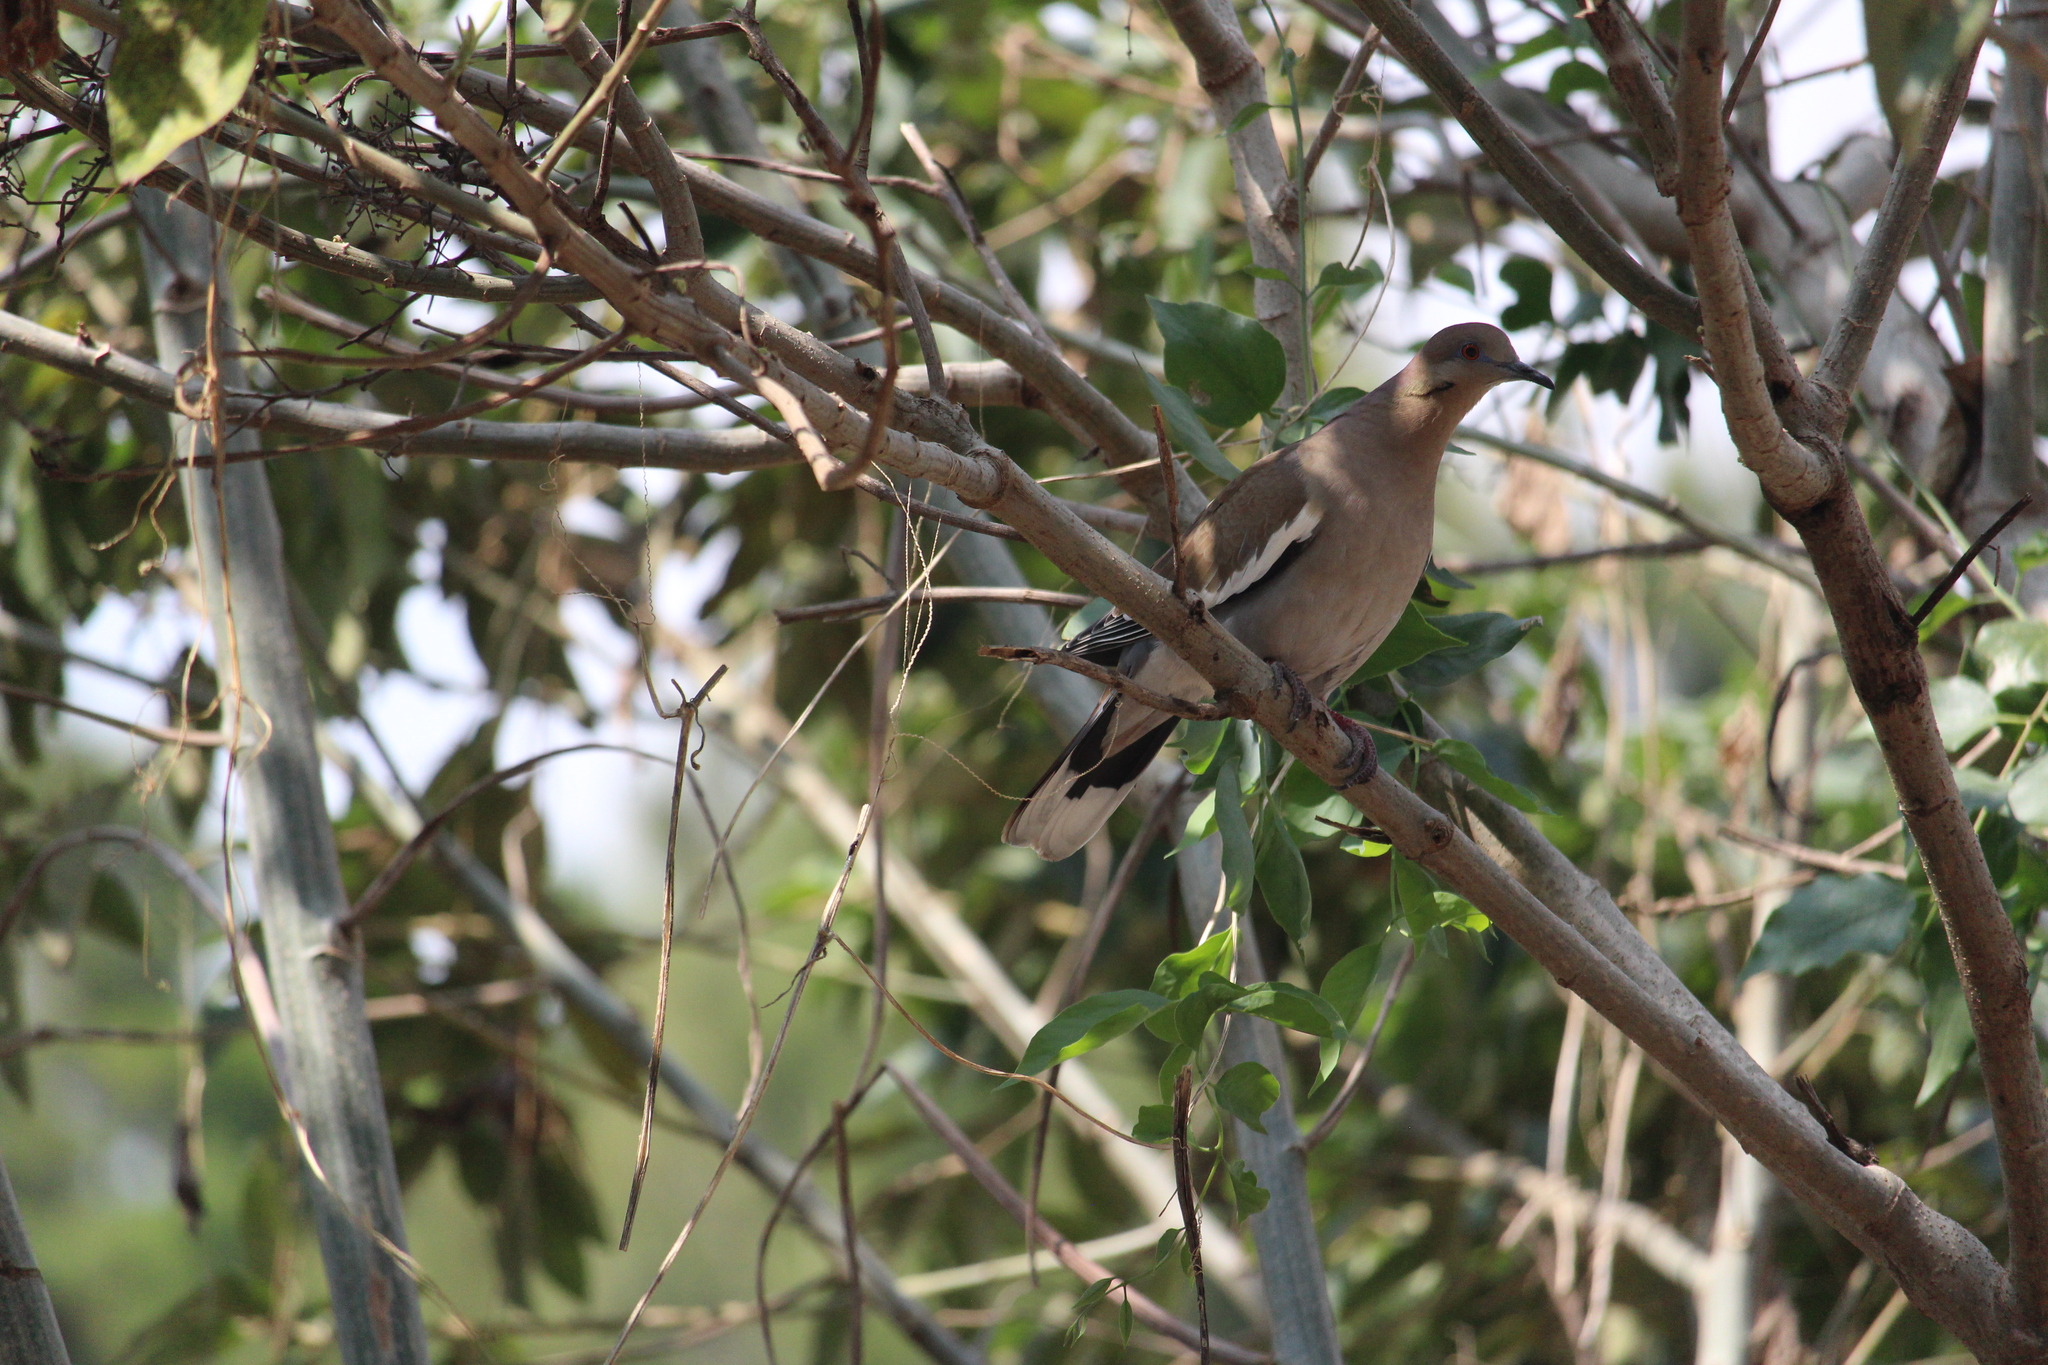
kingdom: Animalia
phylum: Chordata
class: Aves
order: Columbiformes
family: Columbidae
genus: Zenaida
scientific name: Zenaida asiatica
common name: White-winged dove
